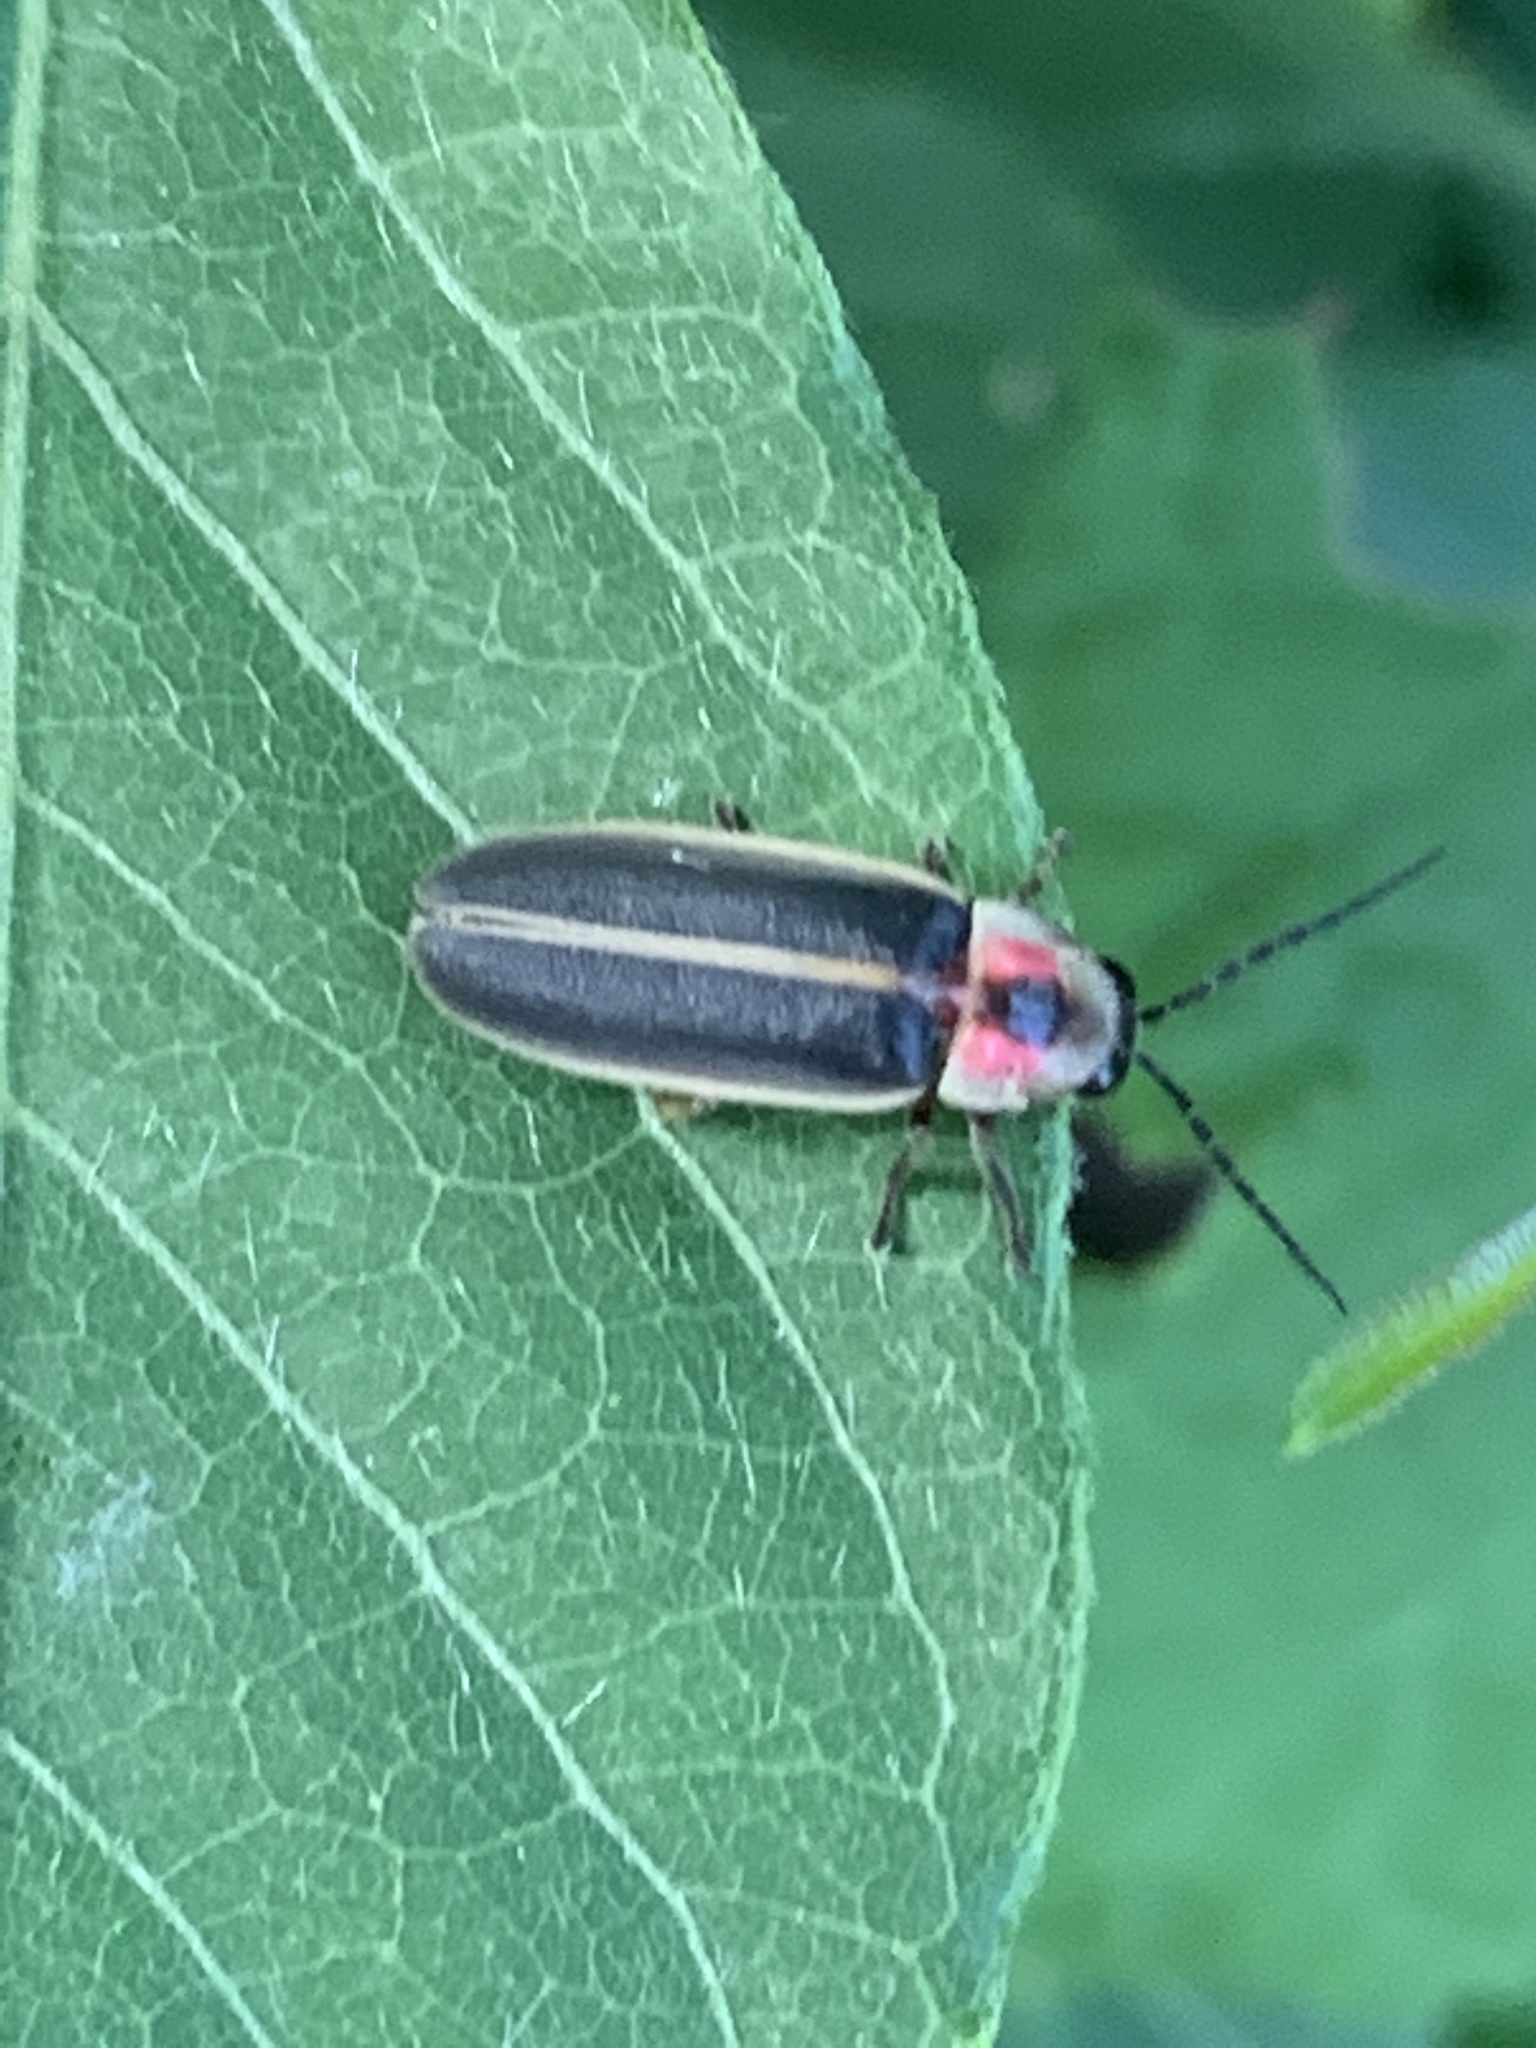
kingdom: Animalia
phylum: Arthropoda
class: Insecta
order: Coleoptera
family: Lampyridae
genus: Photinus
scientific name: Photinus pyralis
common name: Big dipper firefly
